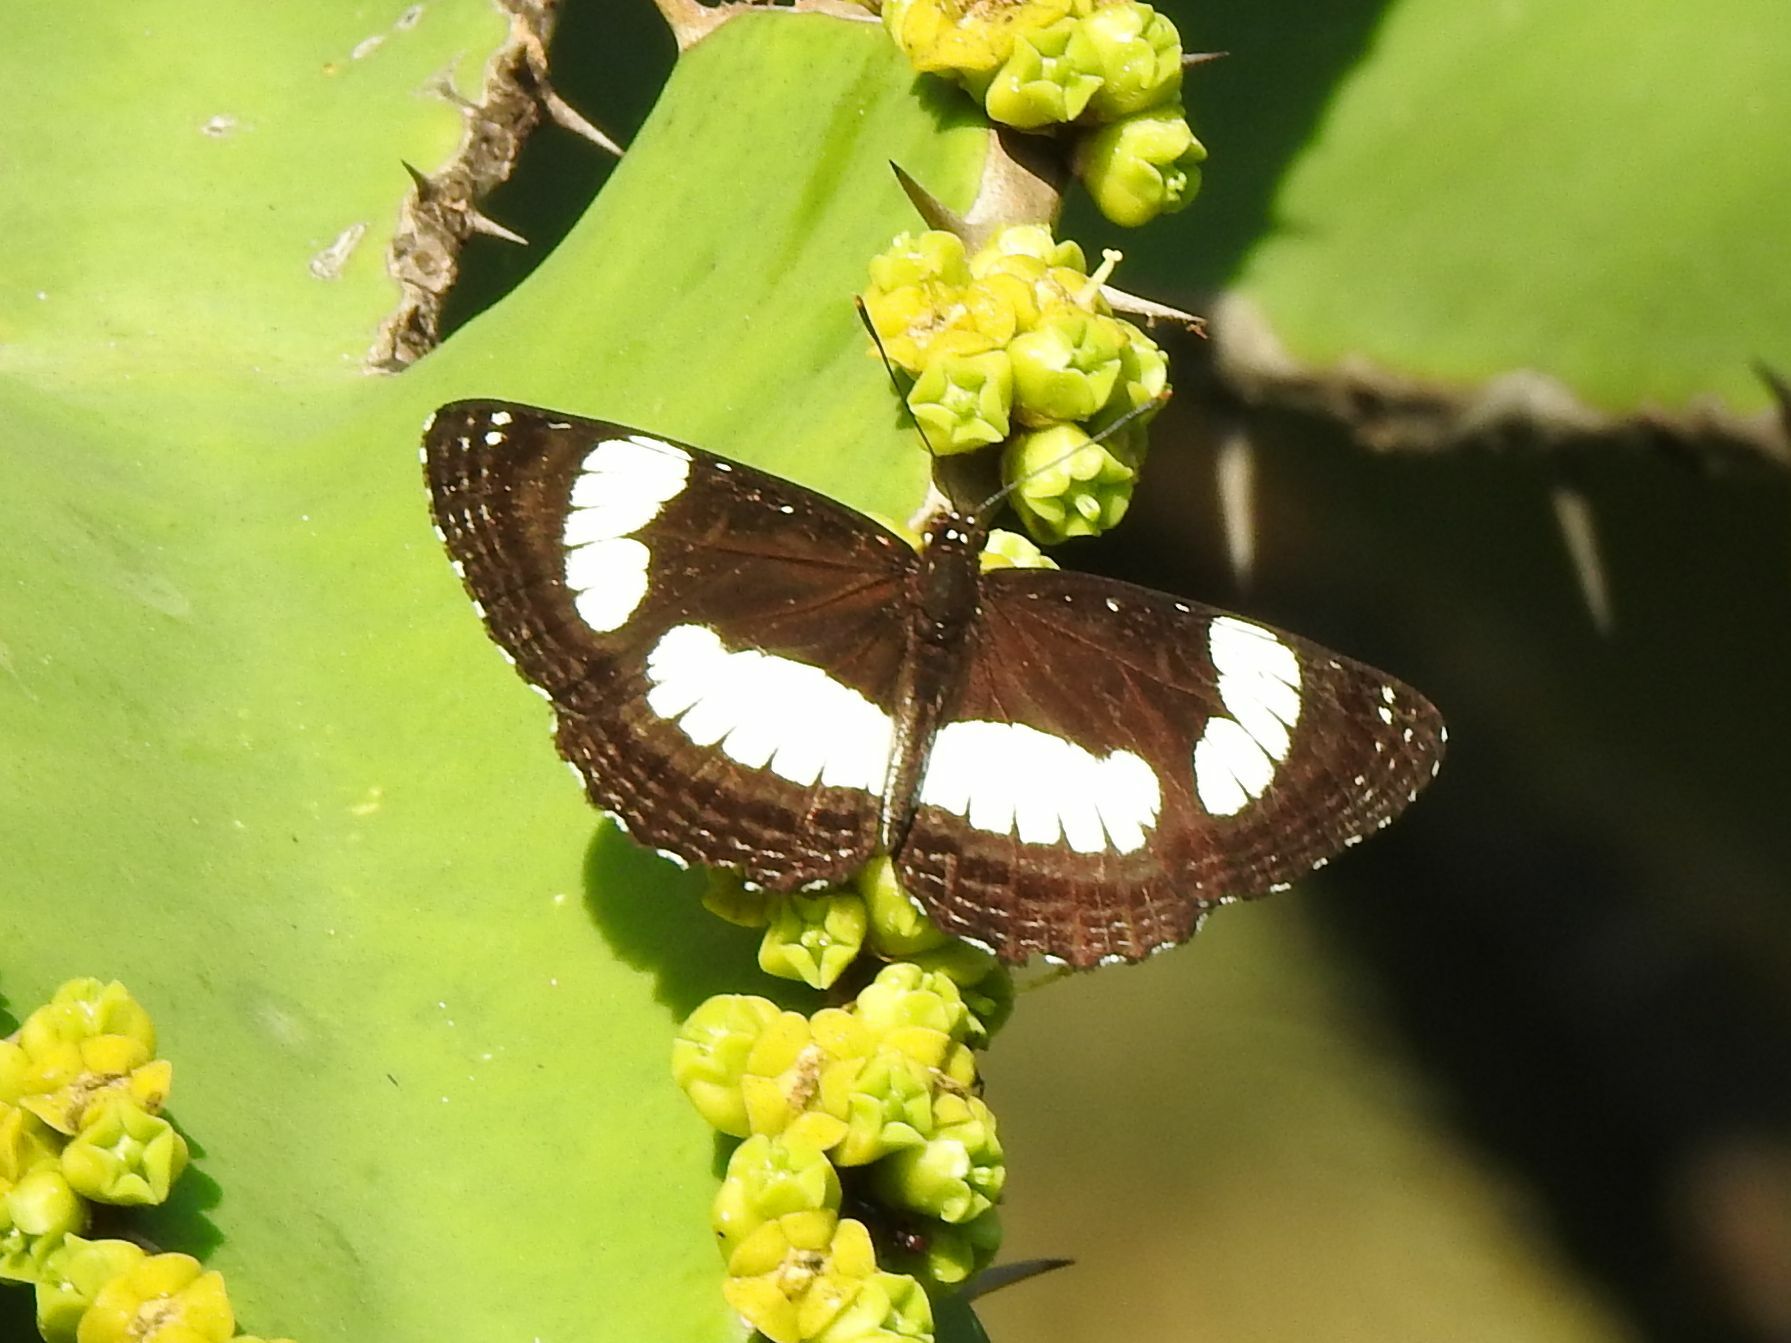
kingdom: Animalia
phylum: Arthropoda
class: Insecta
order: Lepidoptera
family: Nymphalidae
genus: Neptis
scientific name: Neptis laeta
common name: Common barred sailor
